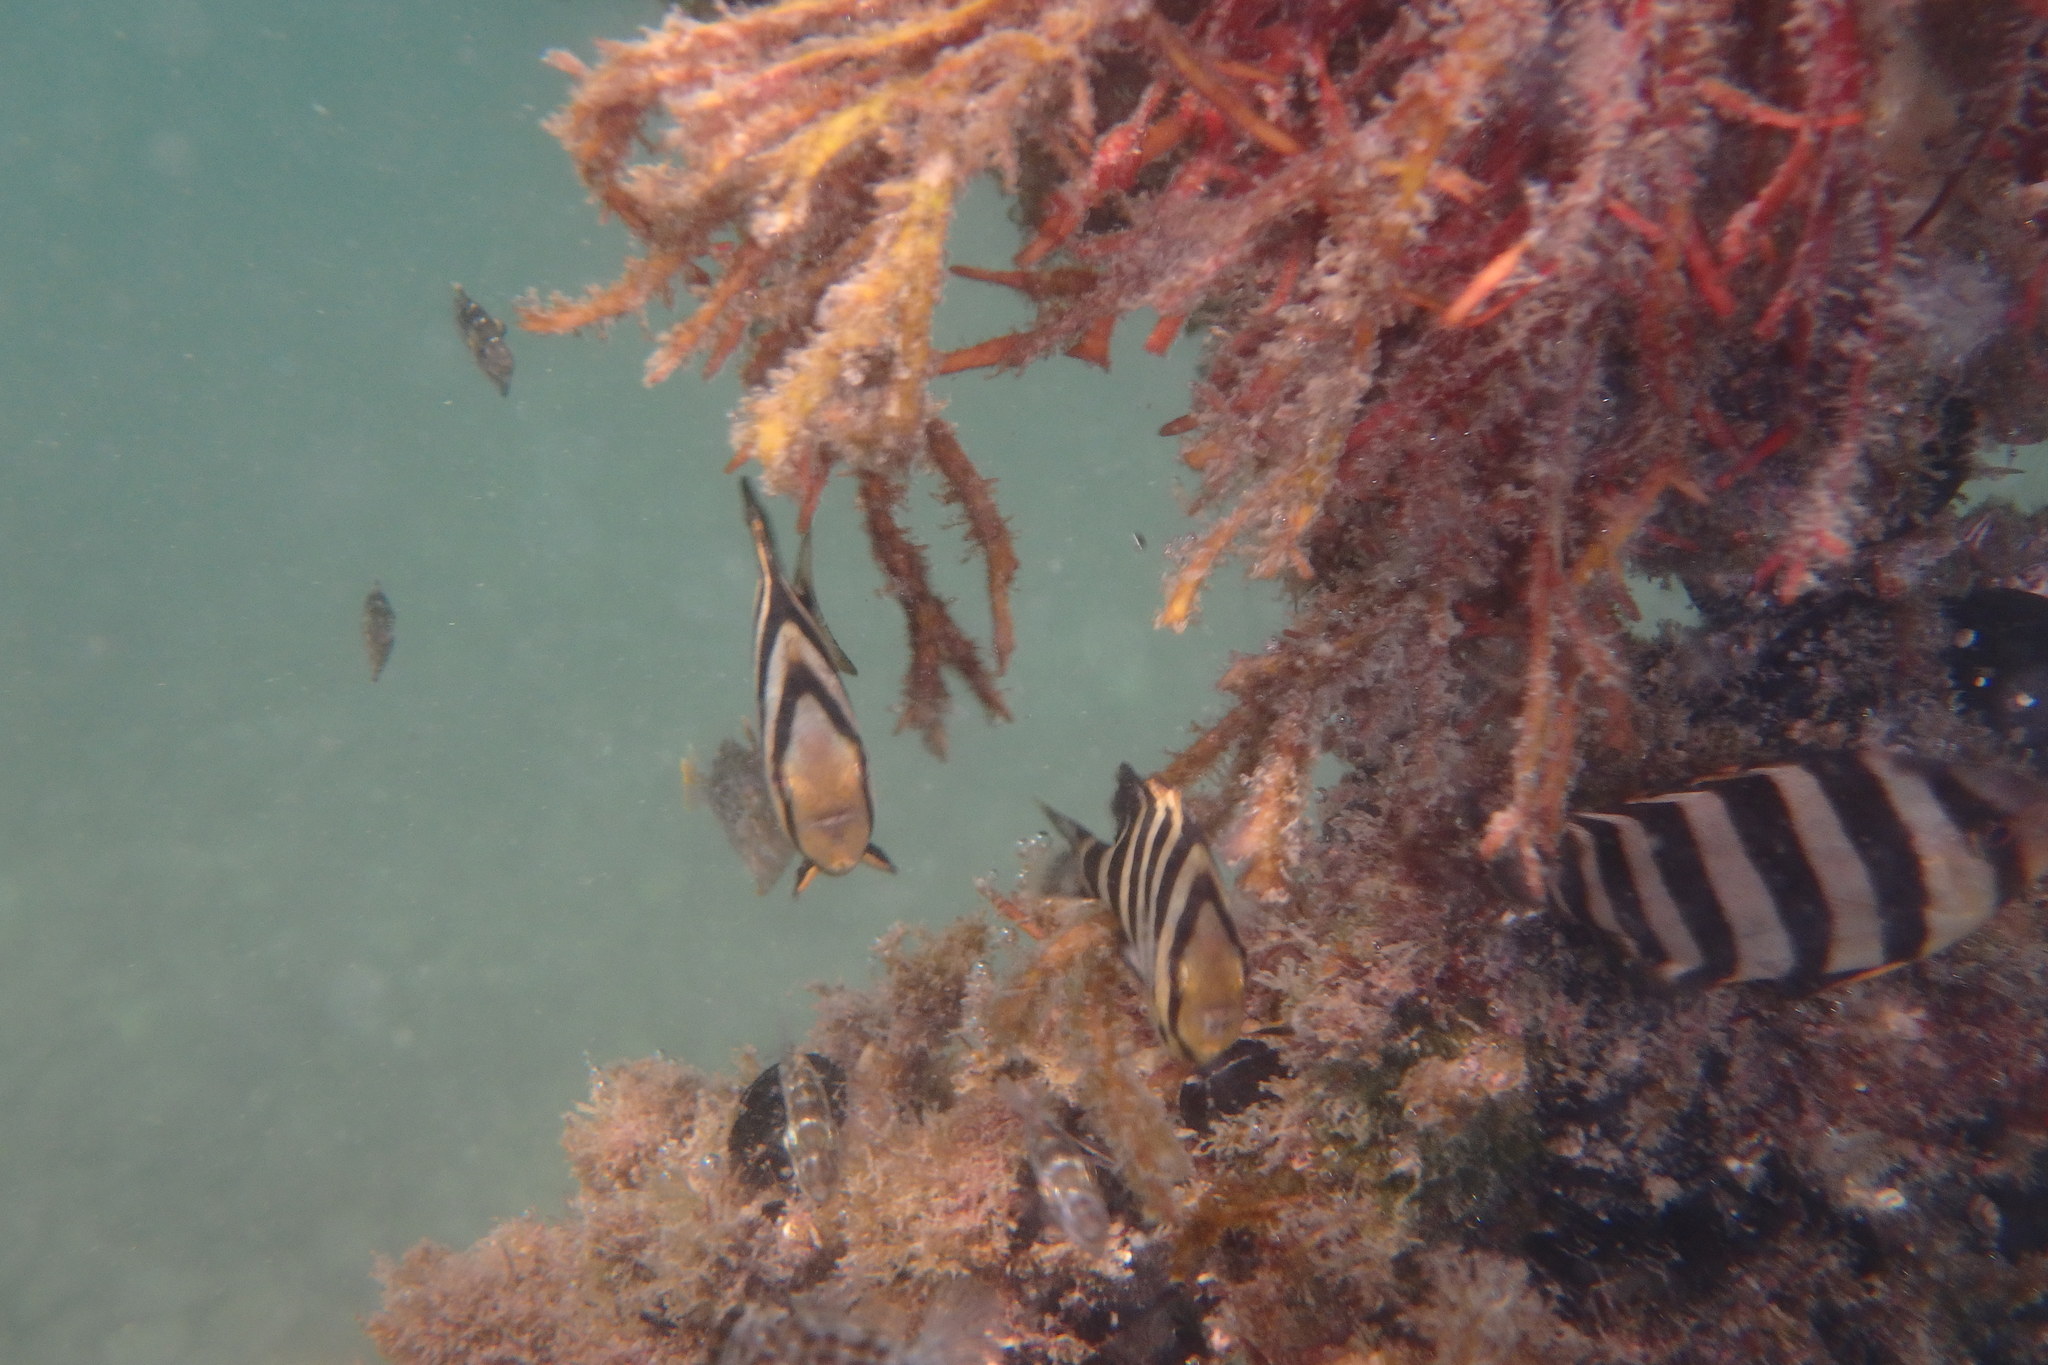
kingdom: Animalia
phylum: Chordata
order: Perciformes
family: Oplegnathidae
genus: Oplegnathus
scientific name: Oplegnathus fasciatus
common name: Barred knifejaw
